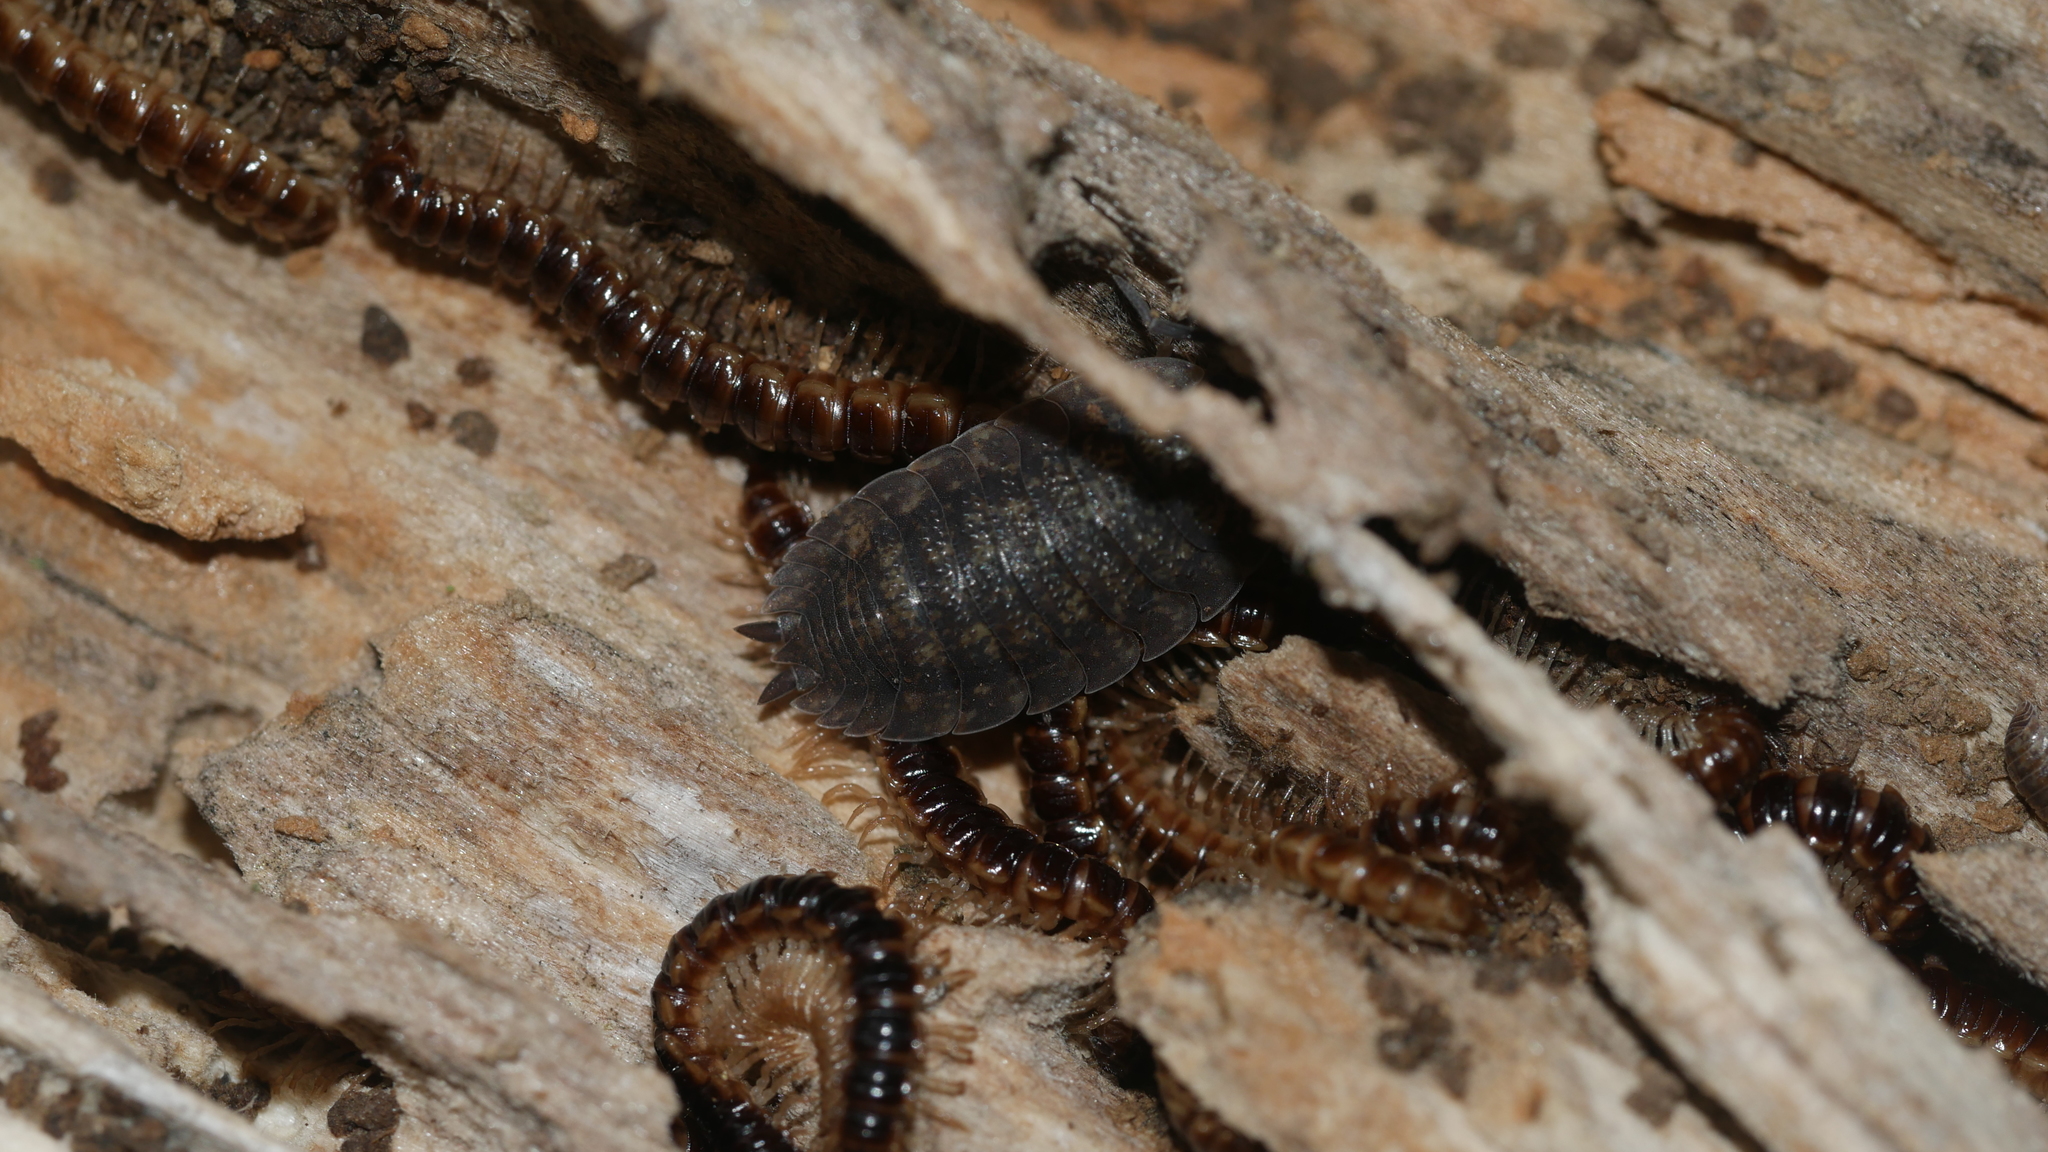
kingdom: Animalia
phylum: Arthropoda
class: Malacostraca
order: Isopoda
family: Porcellionidae
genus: Porcellio
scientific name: Porcellio scaber
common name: Common rough woodlouse
